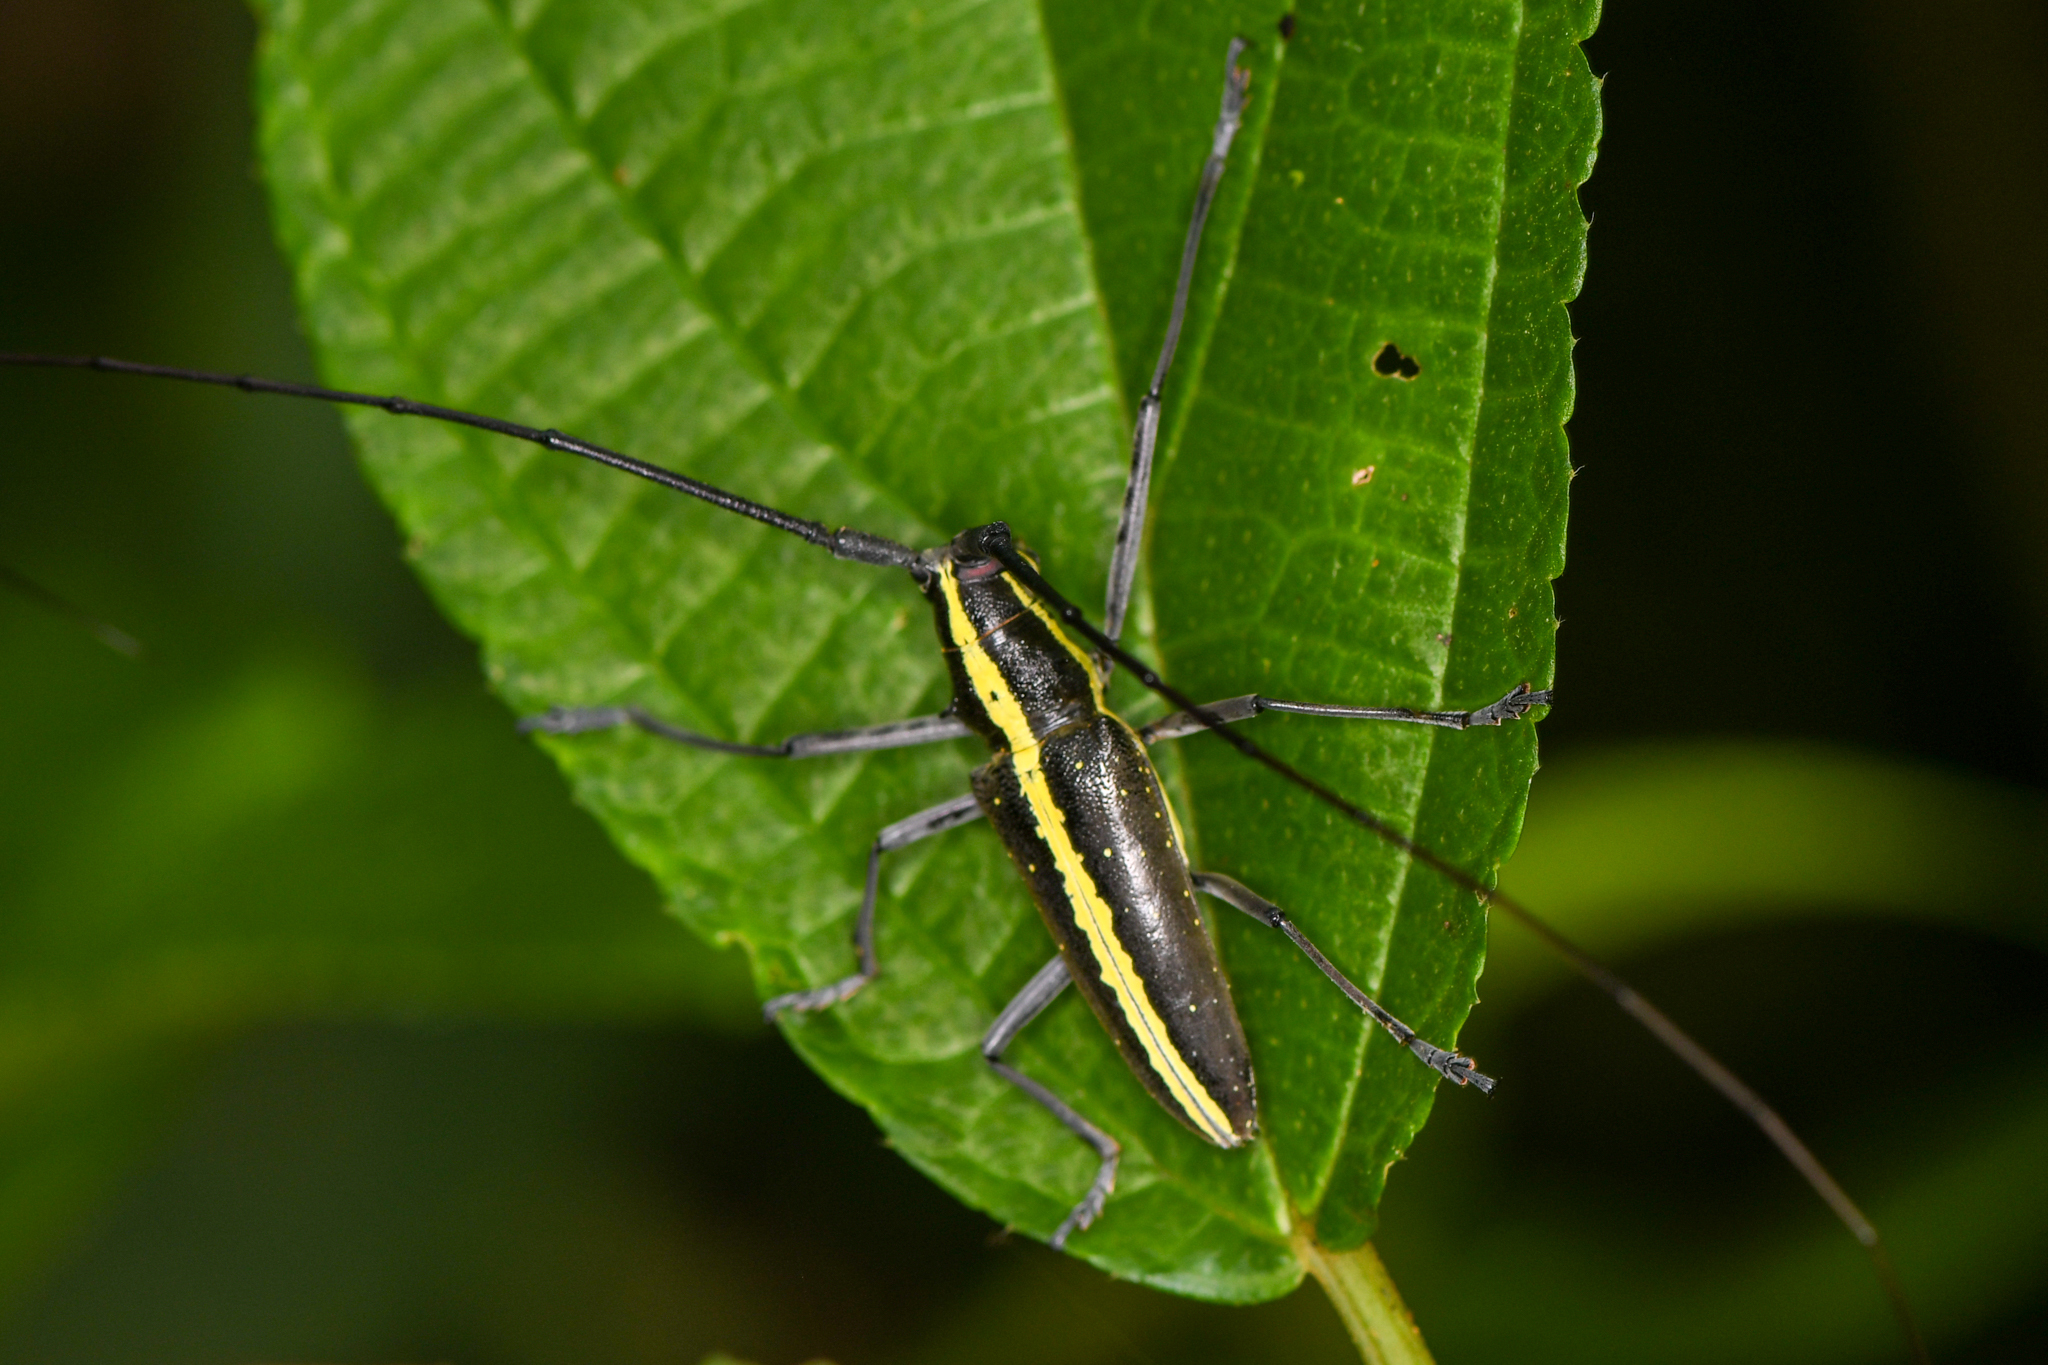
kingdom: Animalia
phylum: Arthropoda
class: Insecta
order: Coleoptera
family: Cerambycidae
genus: Taeniotes
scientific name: Taeniotes scalatus
